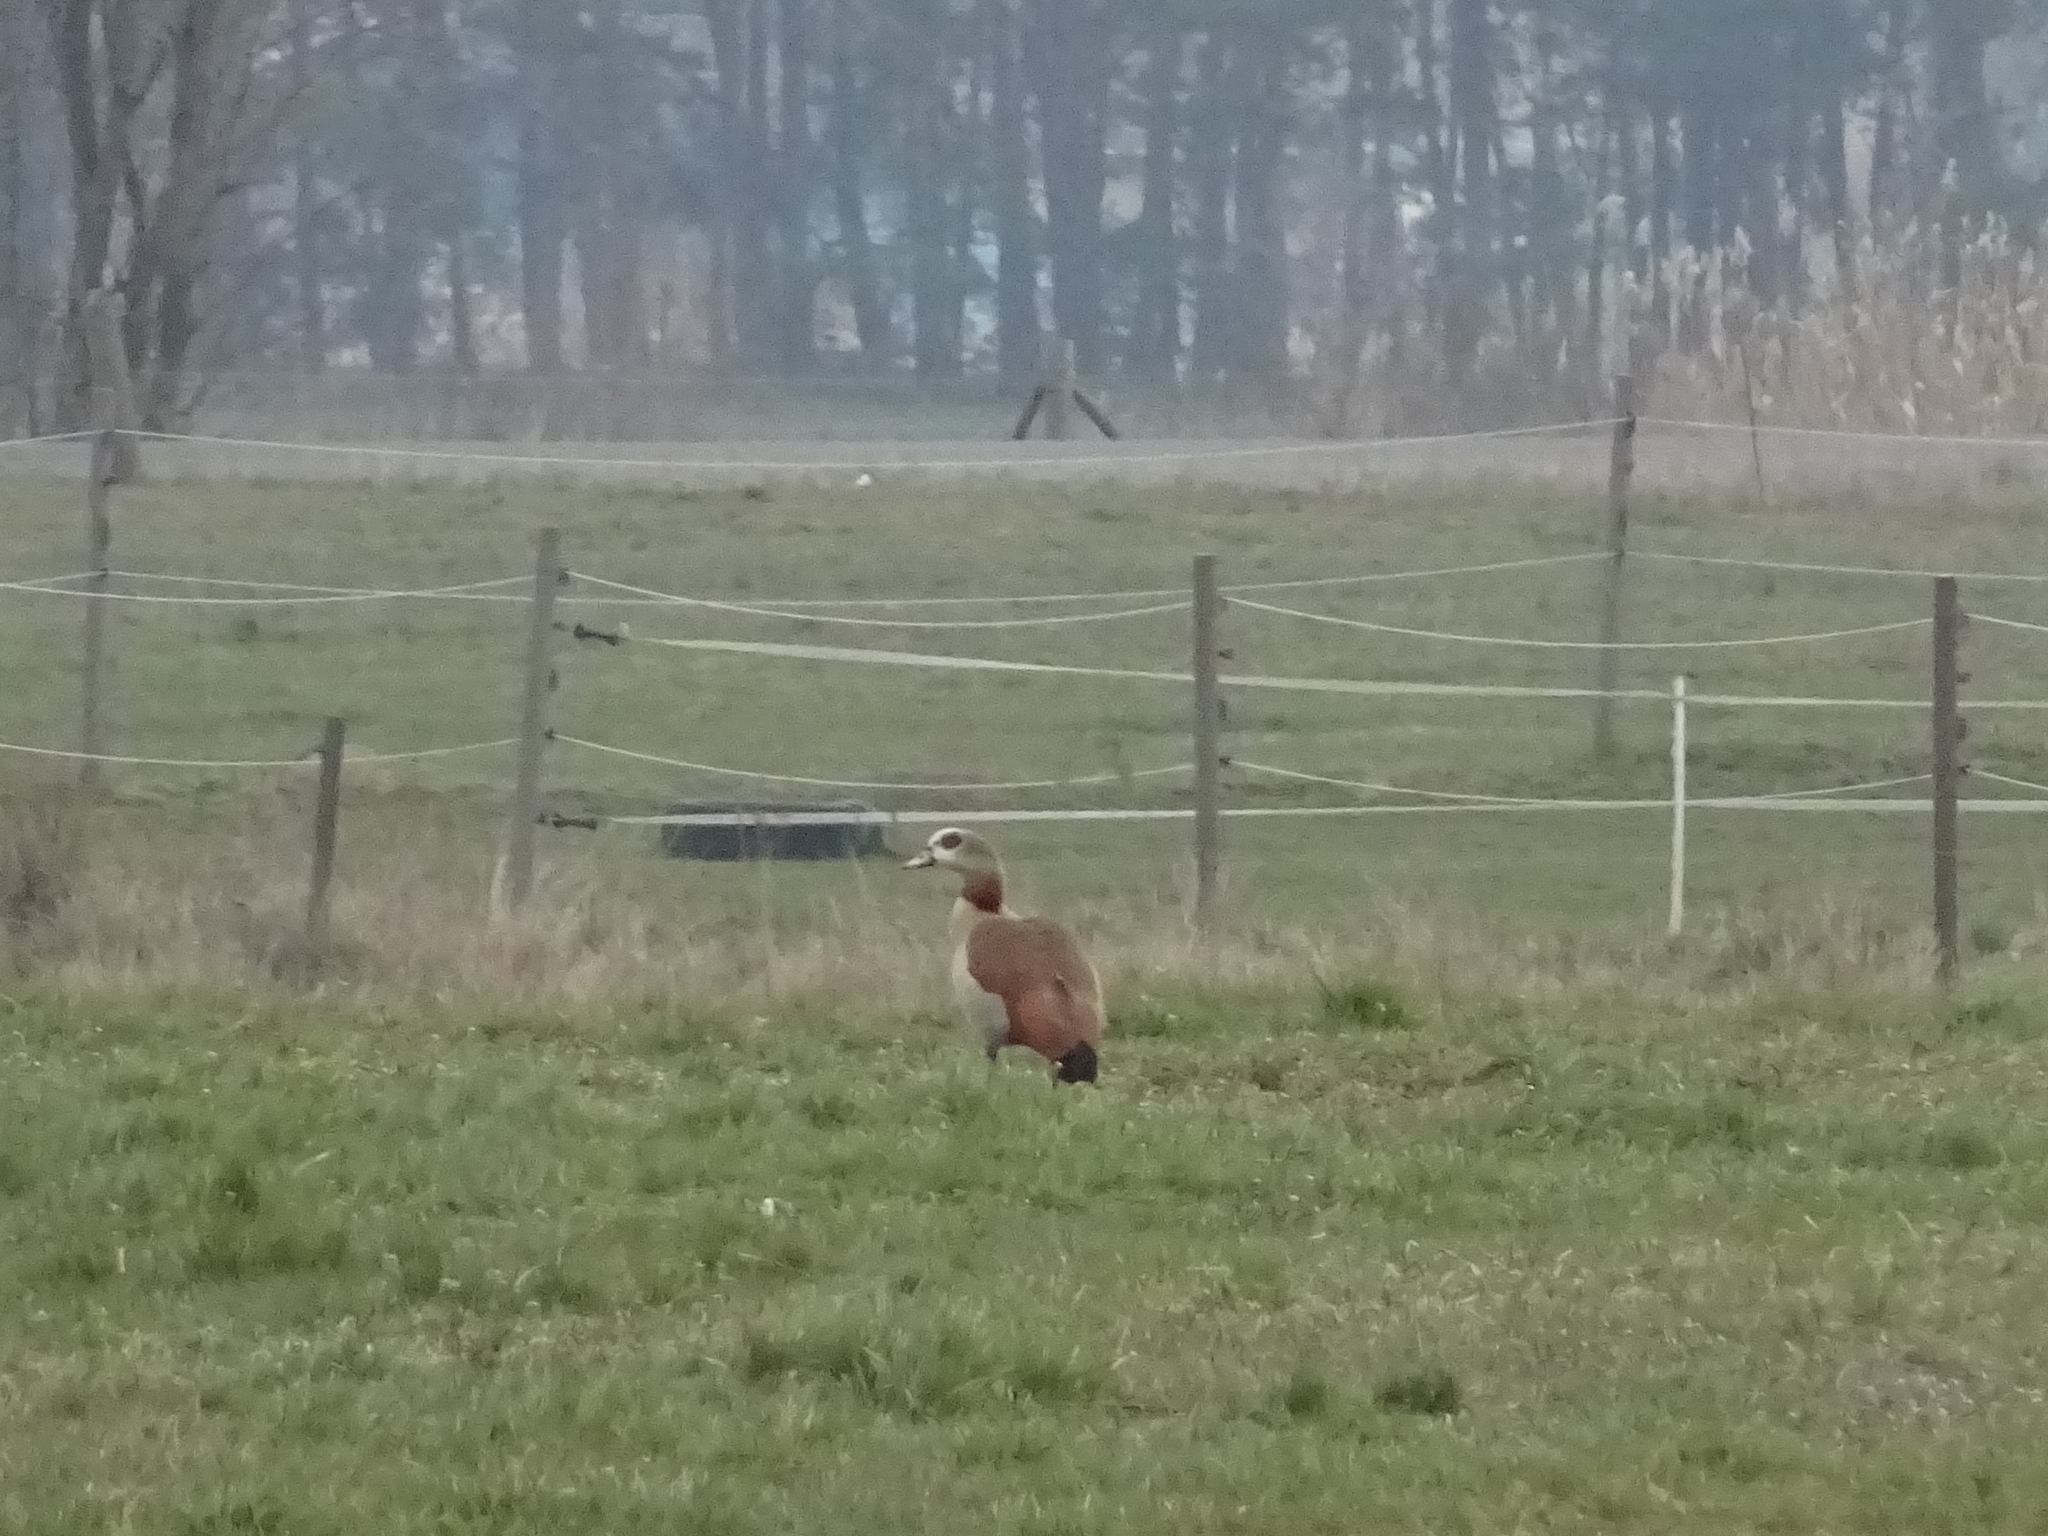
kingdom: Animalia
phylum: Chordata
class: Aves
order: Anseriformes
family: Anatidae
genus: Alopochen
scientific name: Alopochen aegyptiaca
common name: Egyptian goose
